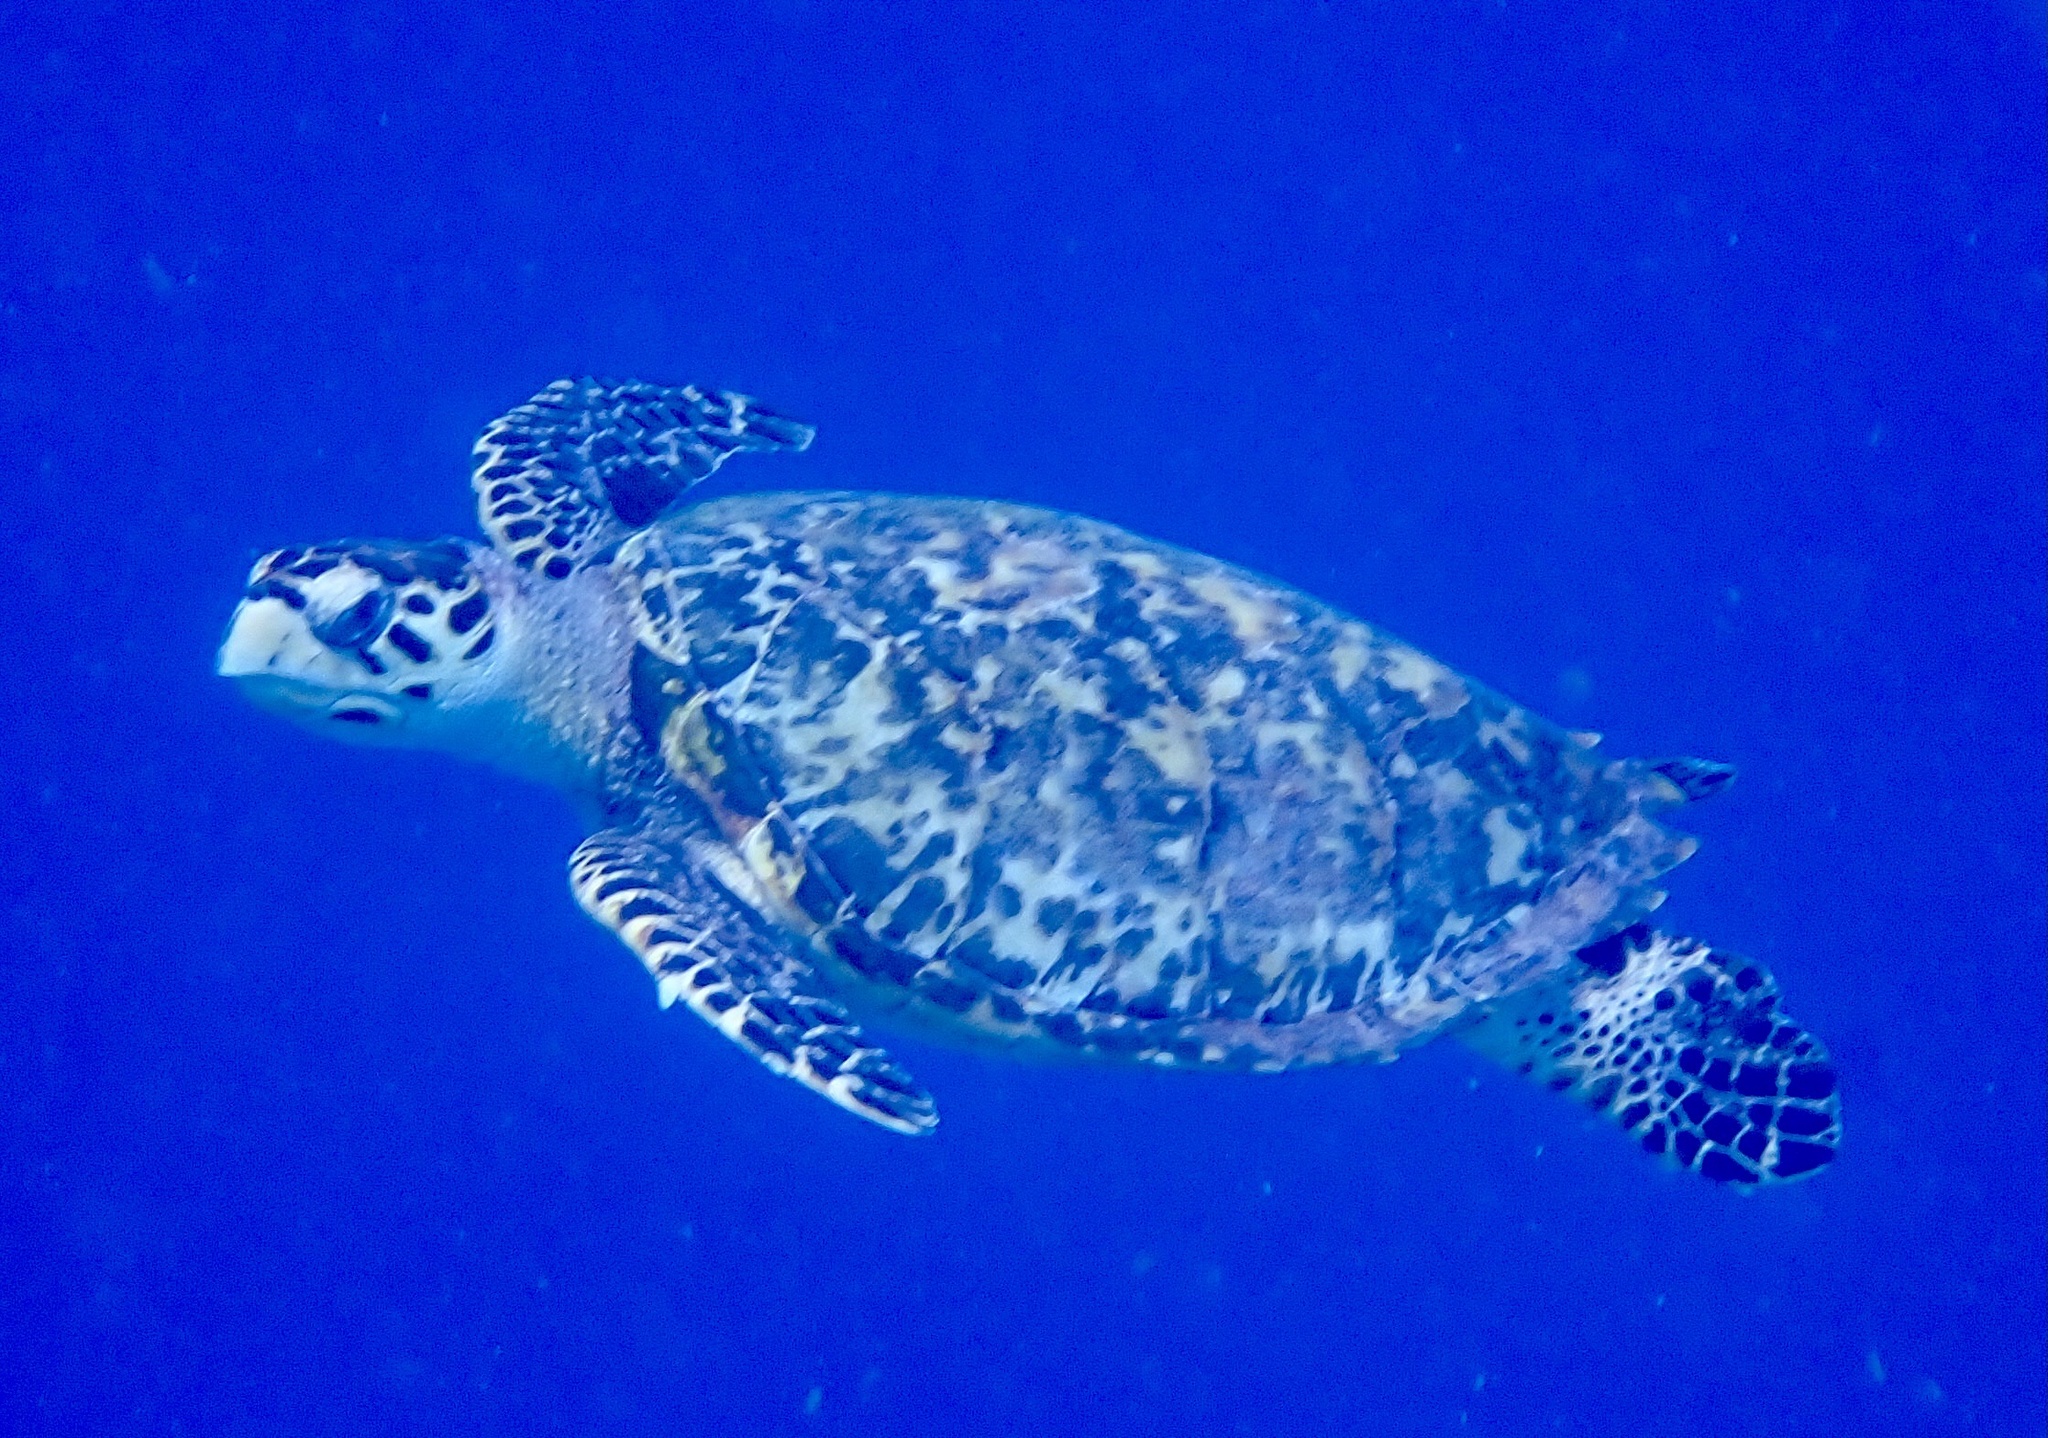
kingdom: Animalia
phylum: Chordata
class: Testudines
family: Cheloniidae
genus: Eretmochelys
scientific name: Eretmochelys imbricata
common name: Hawksbill turtle
